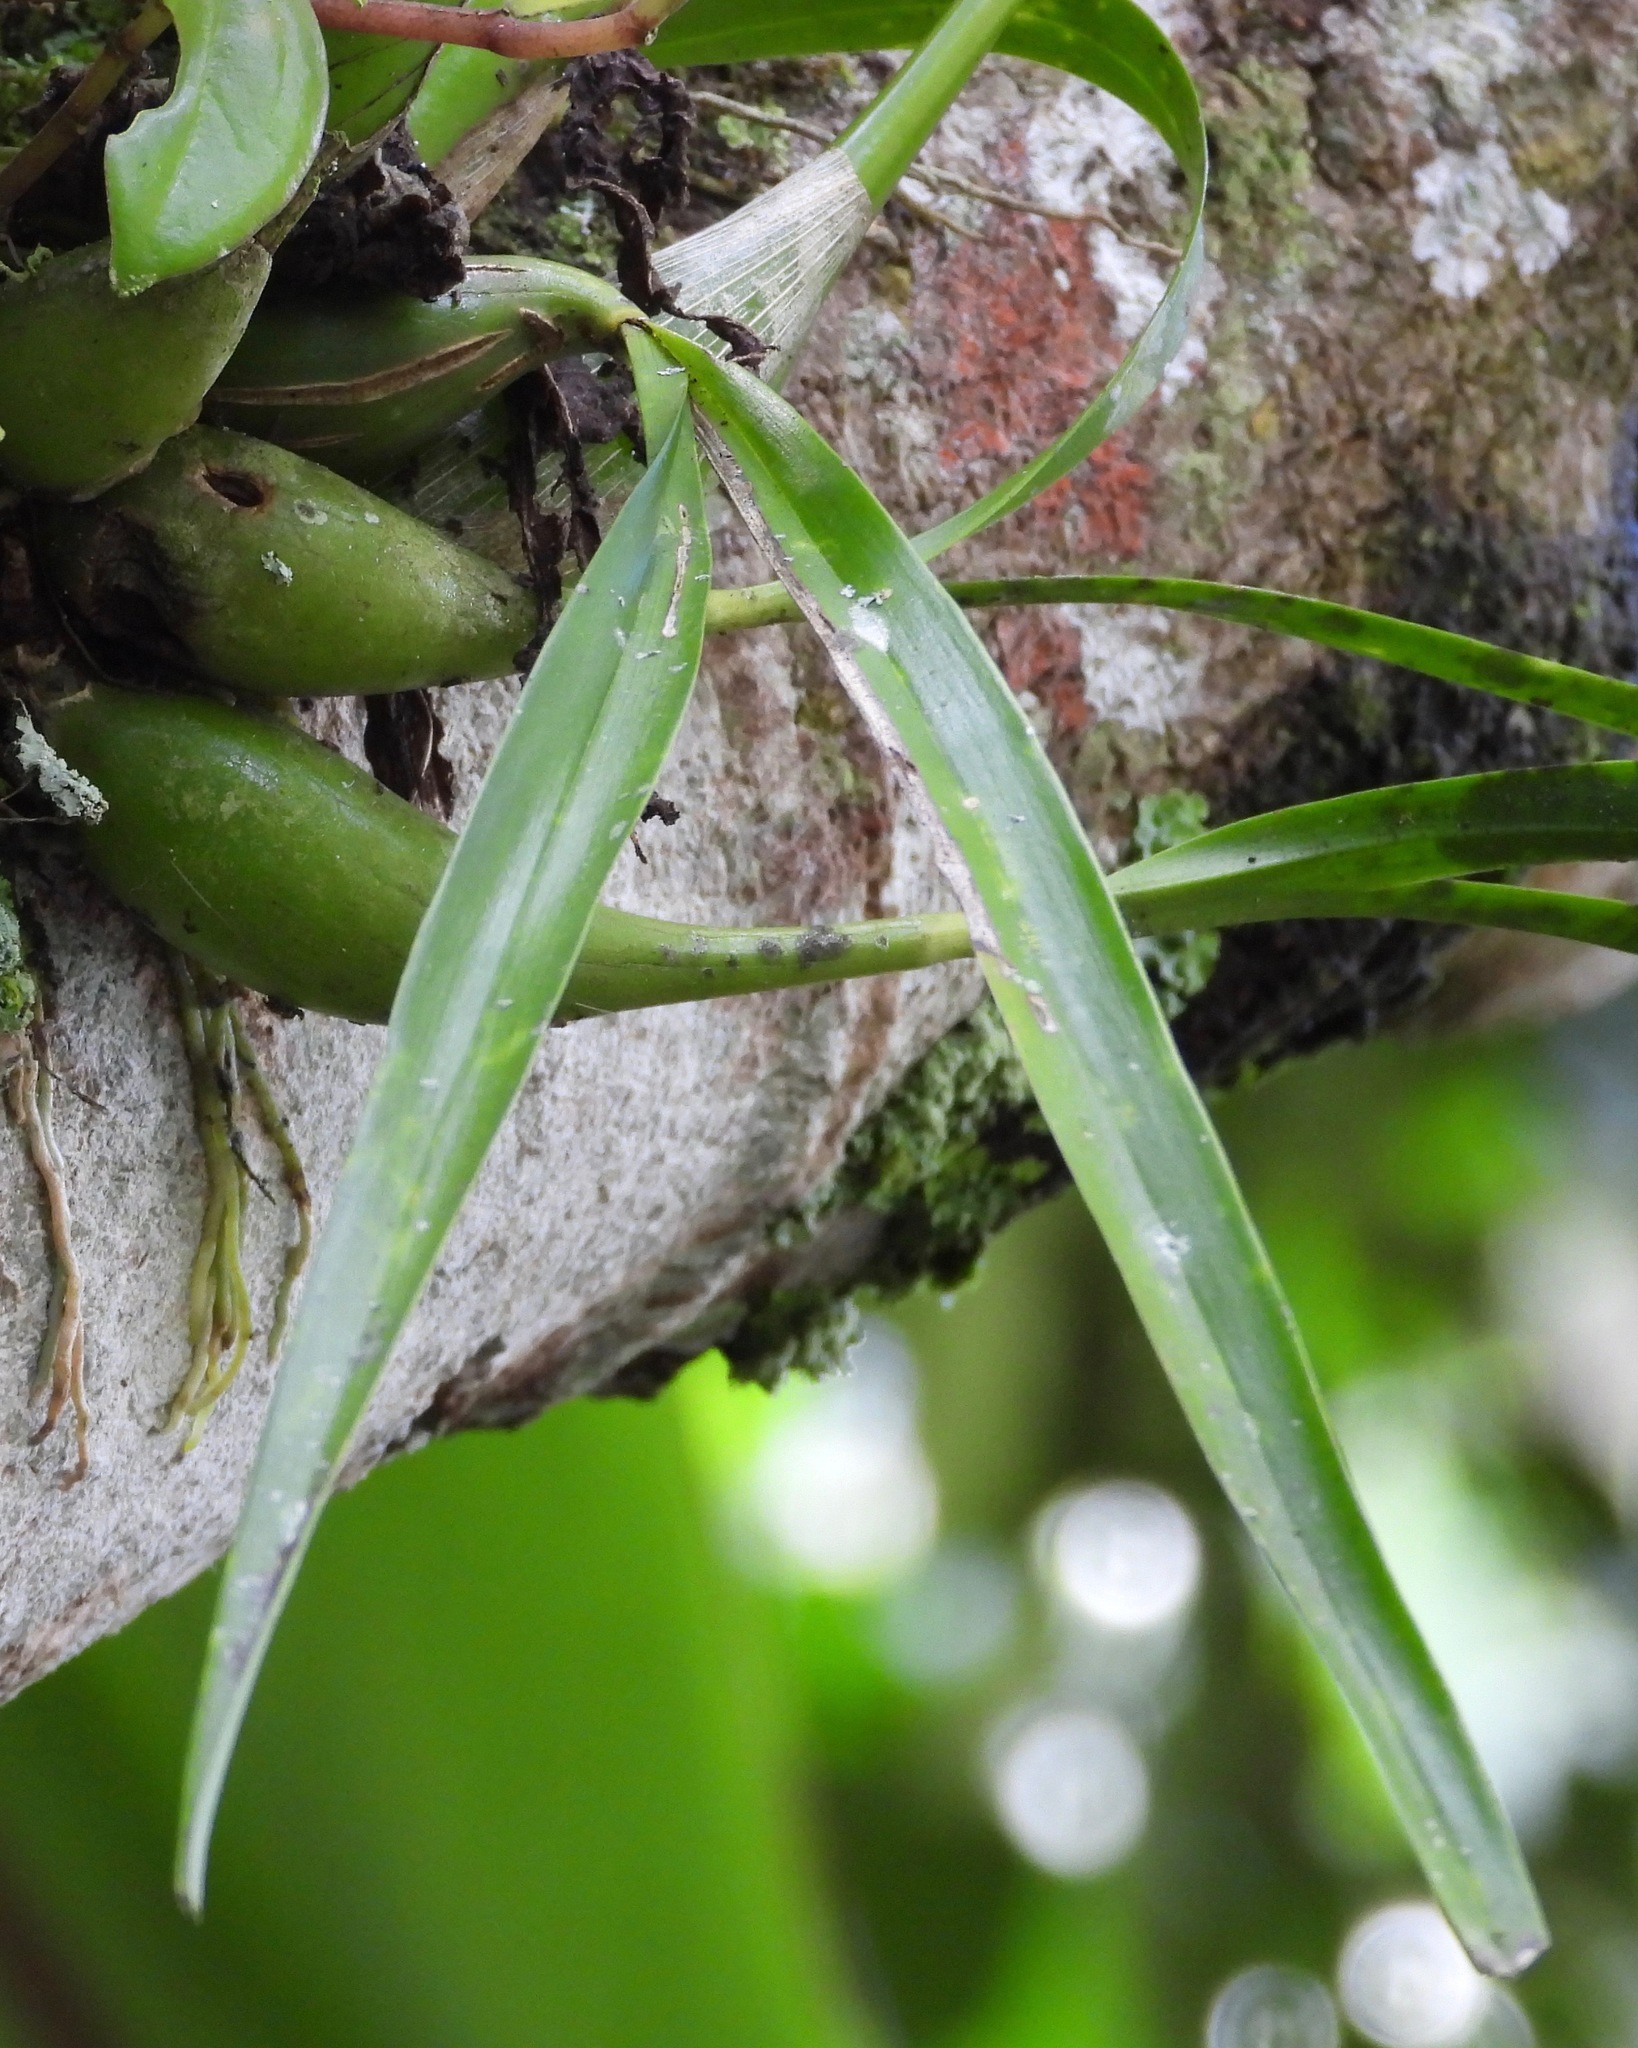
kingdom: Plantae
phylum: Tracheophyta
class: Liliopsida
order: Asparagales
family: Orchidaceae
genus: Prosthechea
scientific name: Prosthechea ochracea
